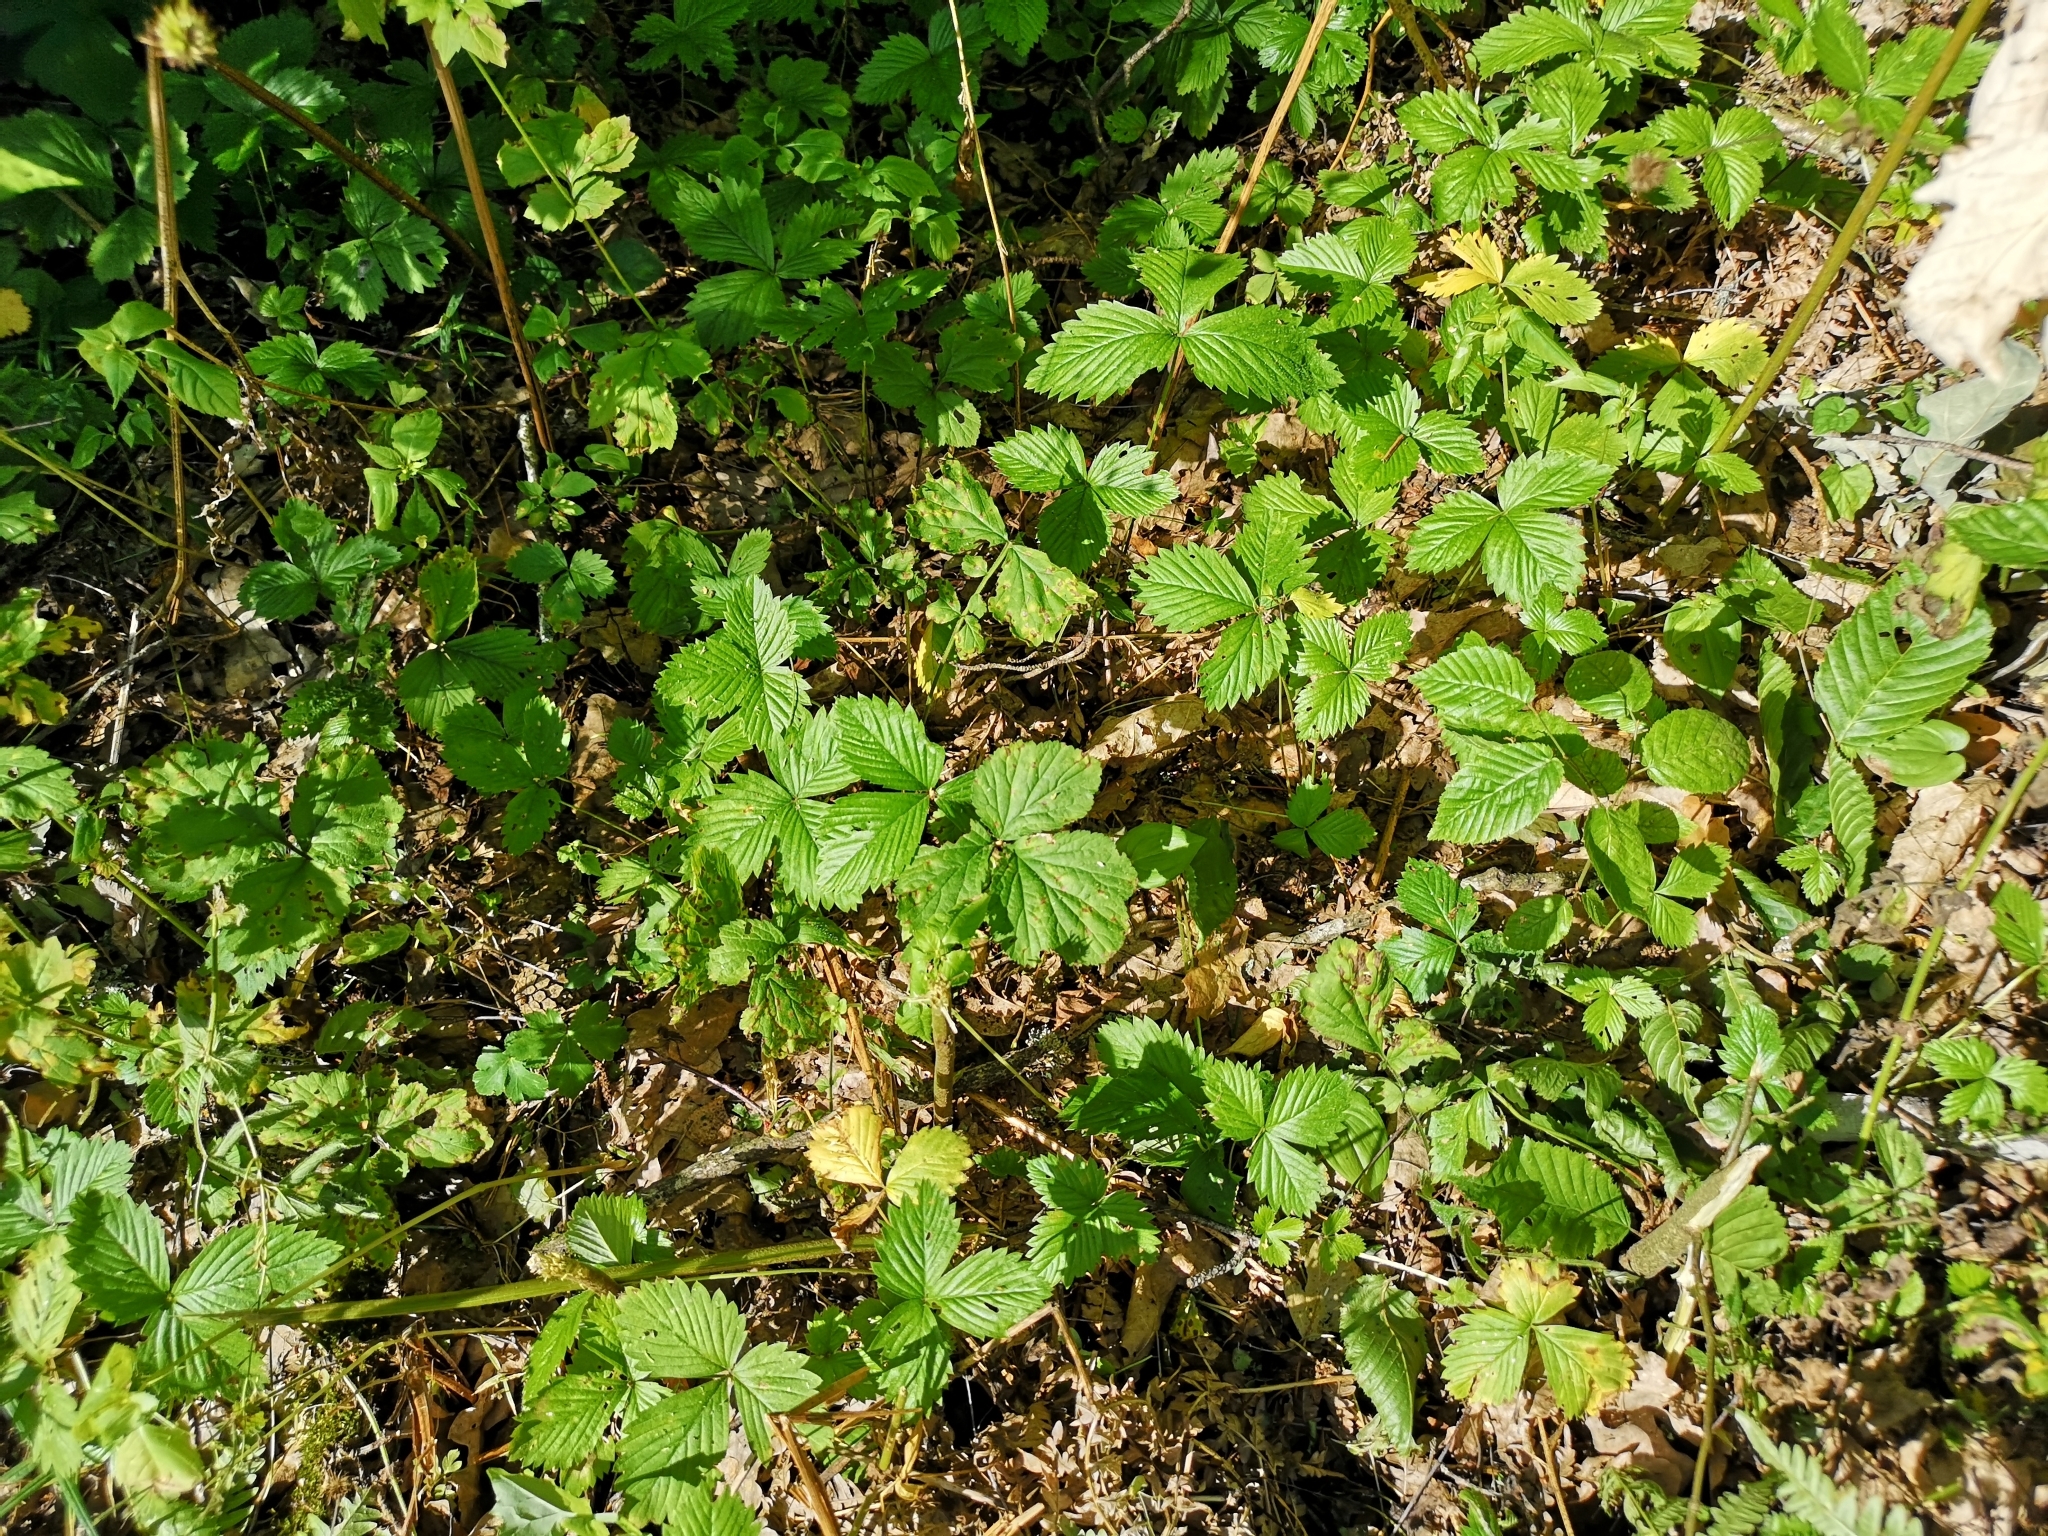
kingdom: Plantae
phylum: Tracheophyta
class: Magnoliopsida
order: Rosales
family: Rosaceae
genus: Fragaria
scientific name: Fragaria vesca
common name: Wild strawberry
